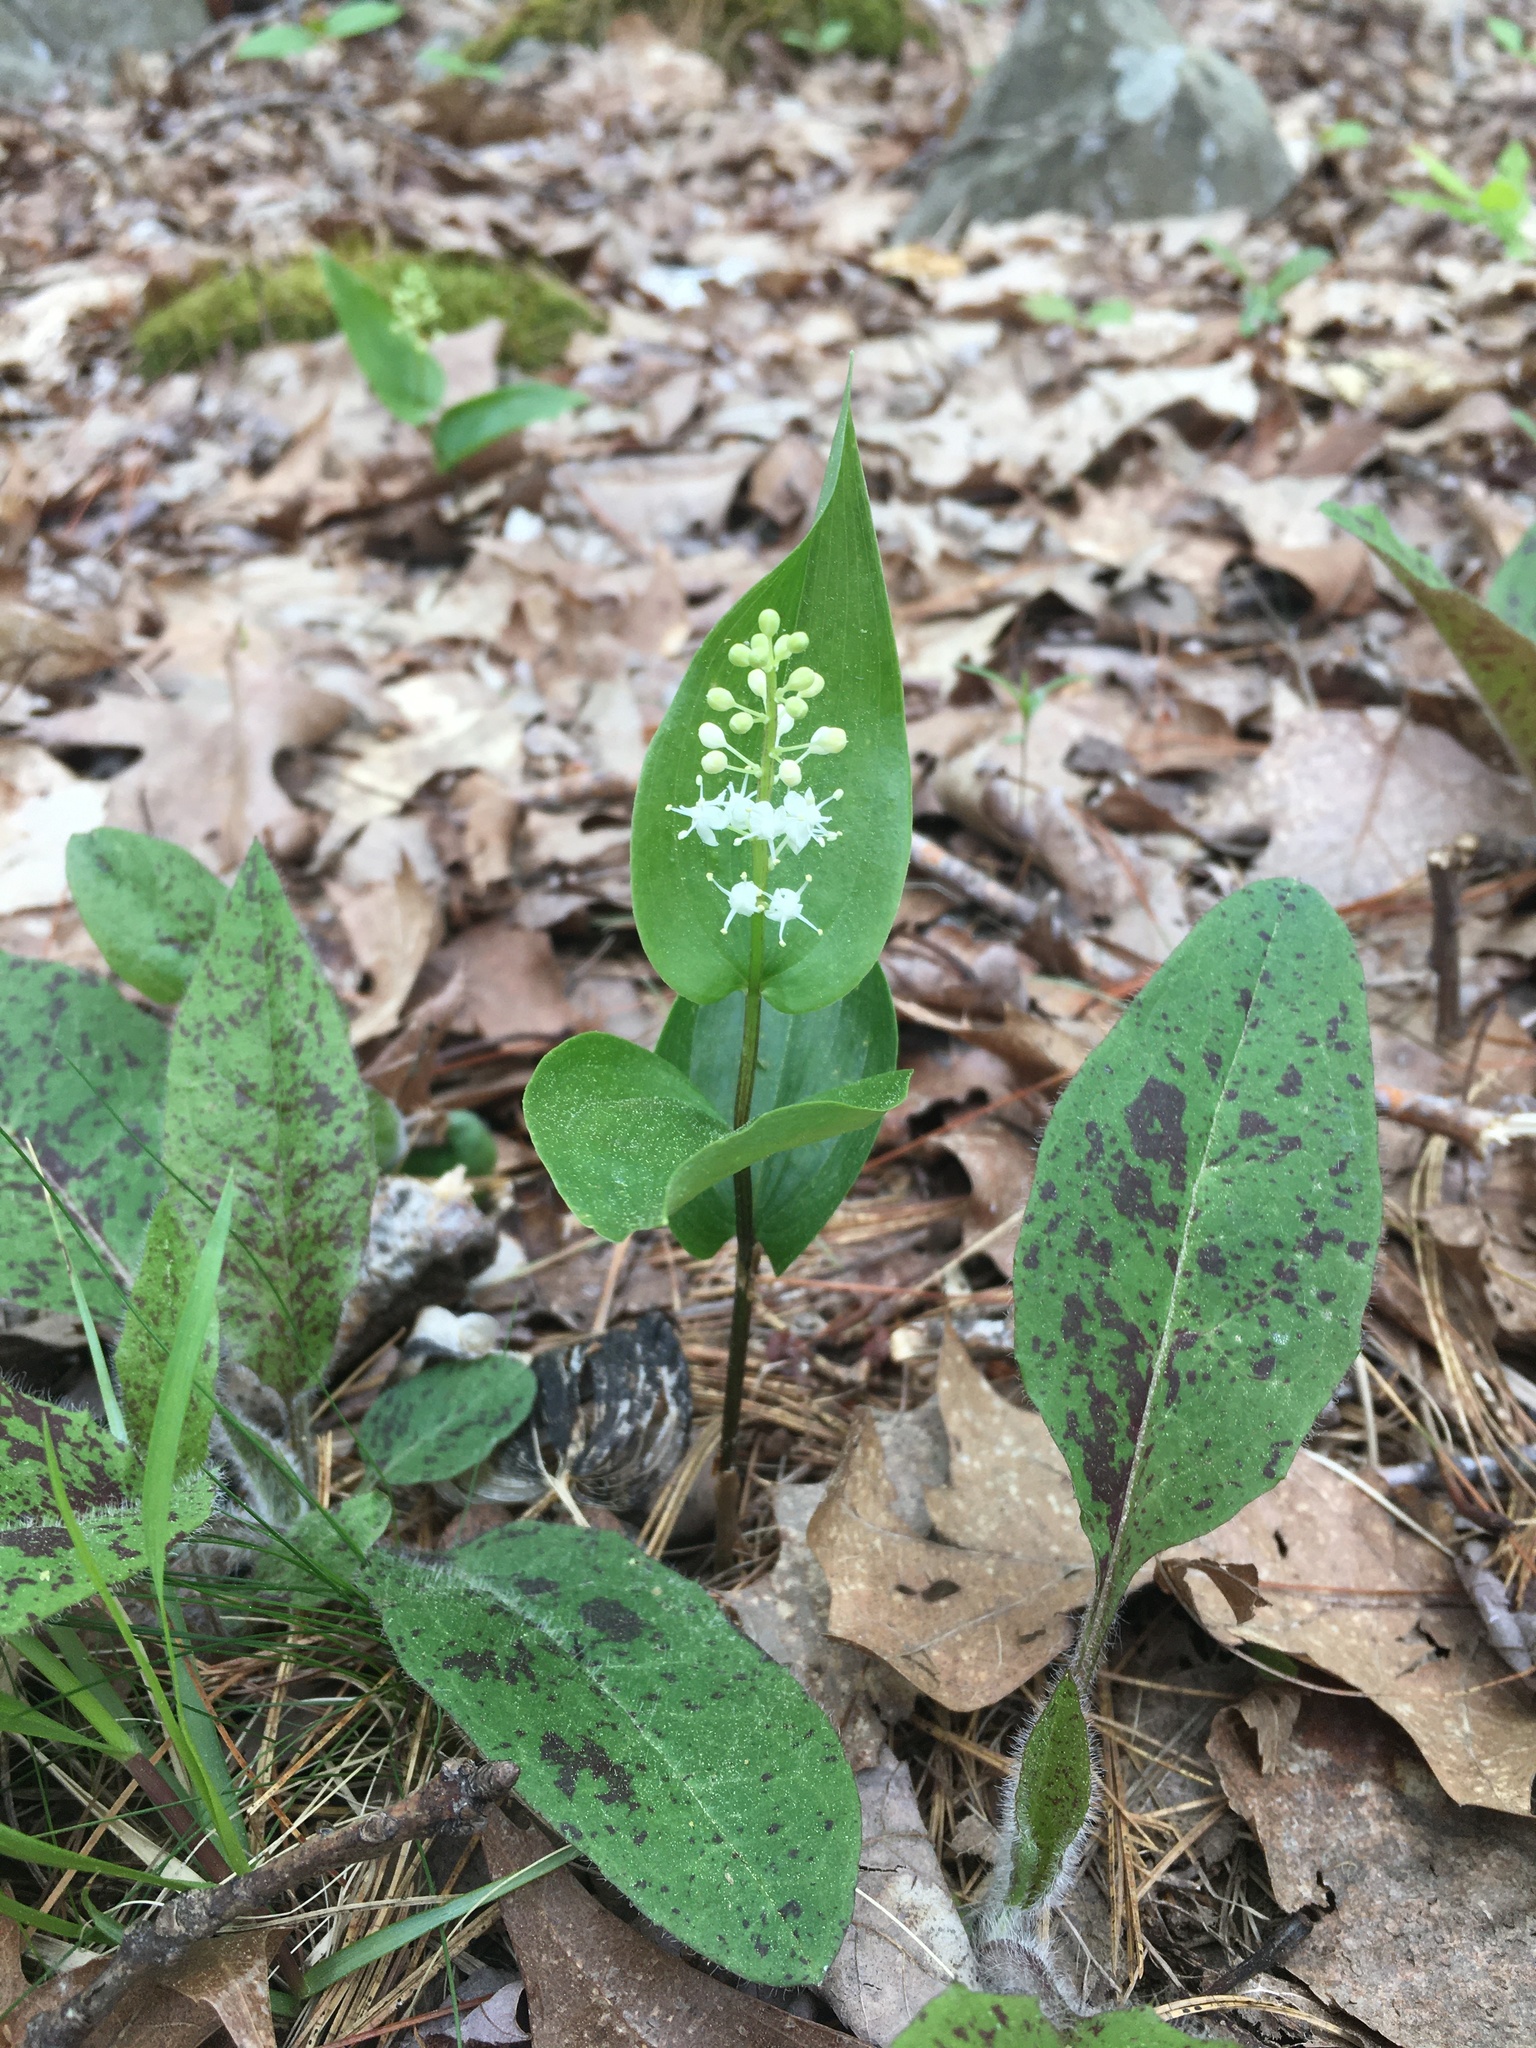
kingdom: Plantae
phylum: Tracheophyta
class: Liliopsida
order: Asparagales
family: Asparagaceae
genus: Maianthemum
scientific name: Maianthemum canadense
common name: False lily-of-the-valley
